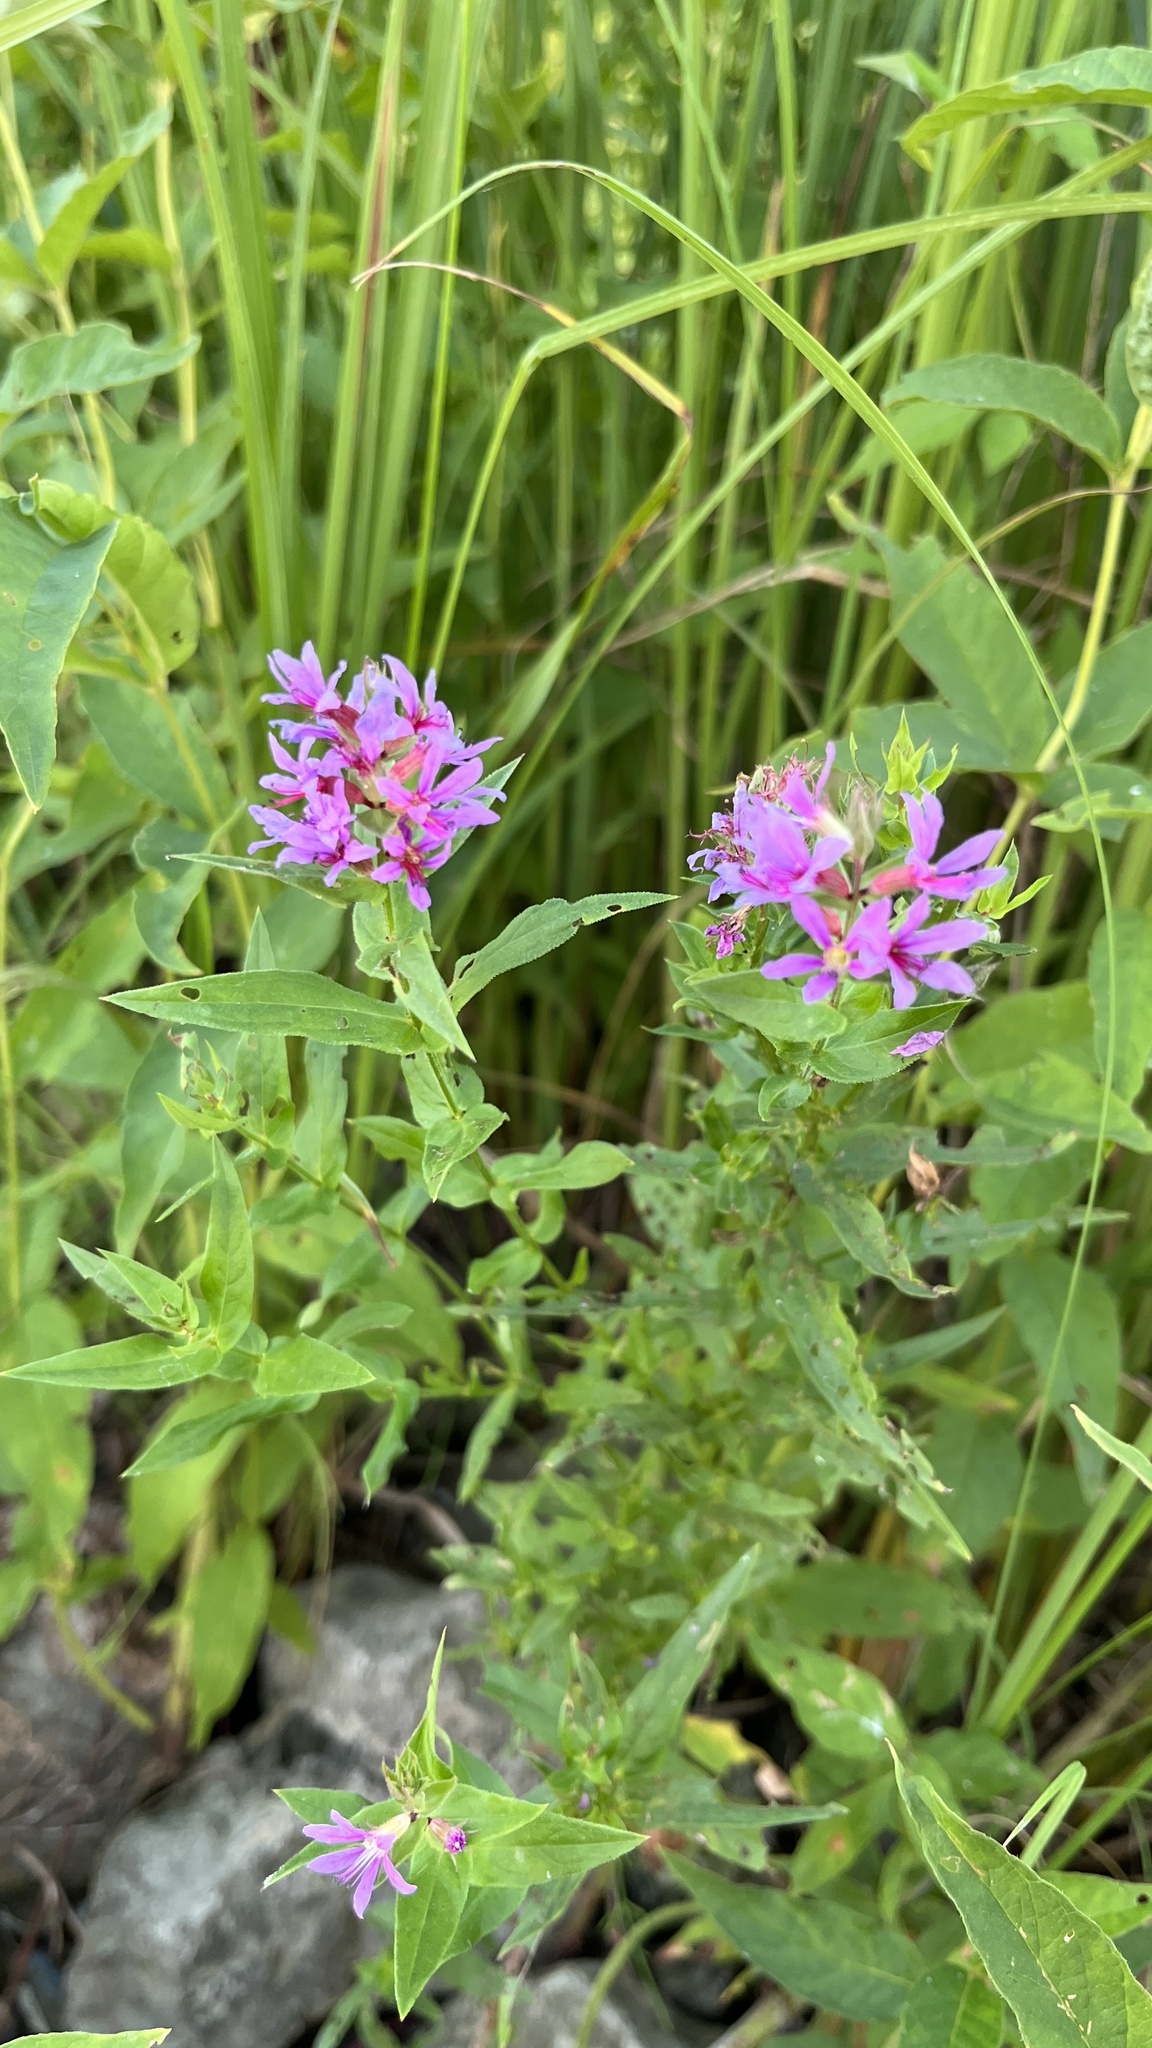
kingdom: Plantae
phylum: Tracheophyta
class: Magnoliopsida
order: Myrtales
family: Lythraceae
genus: Lythrum
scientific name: Lythrum salicaria
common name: Purple loosestrife
